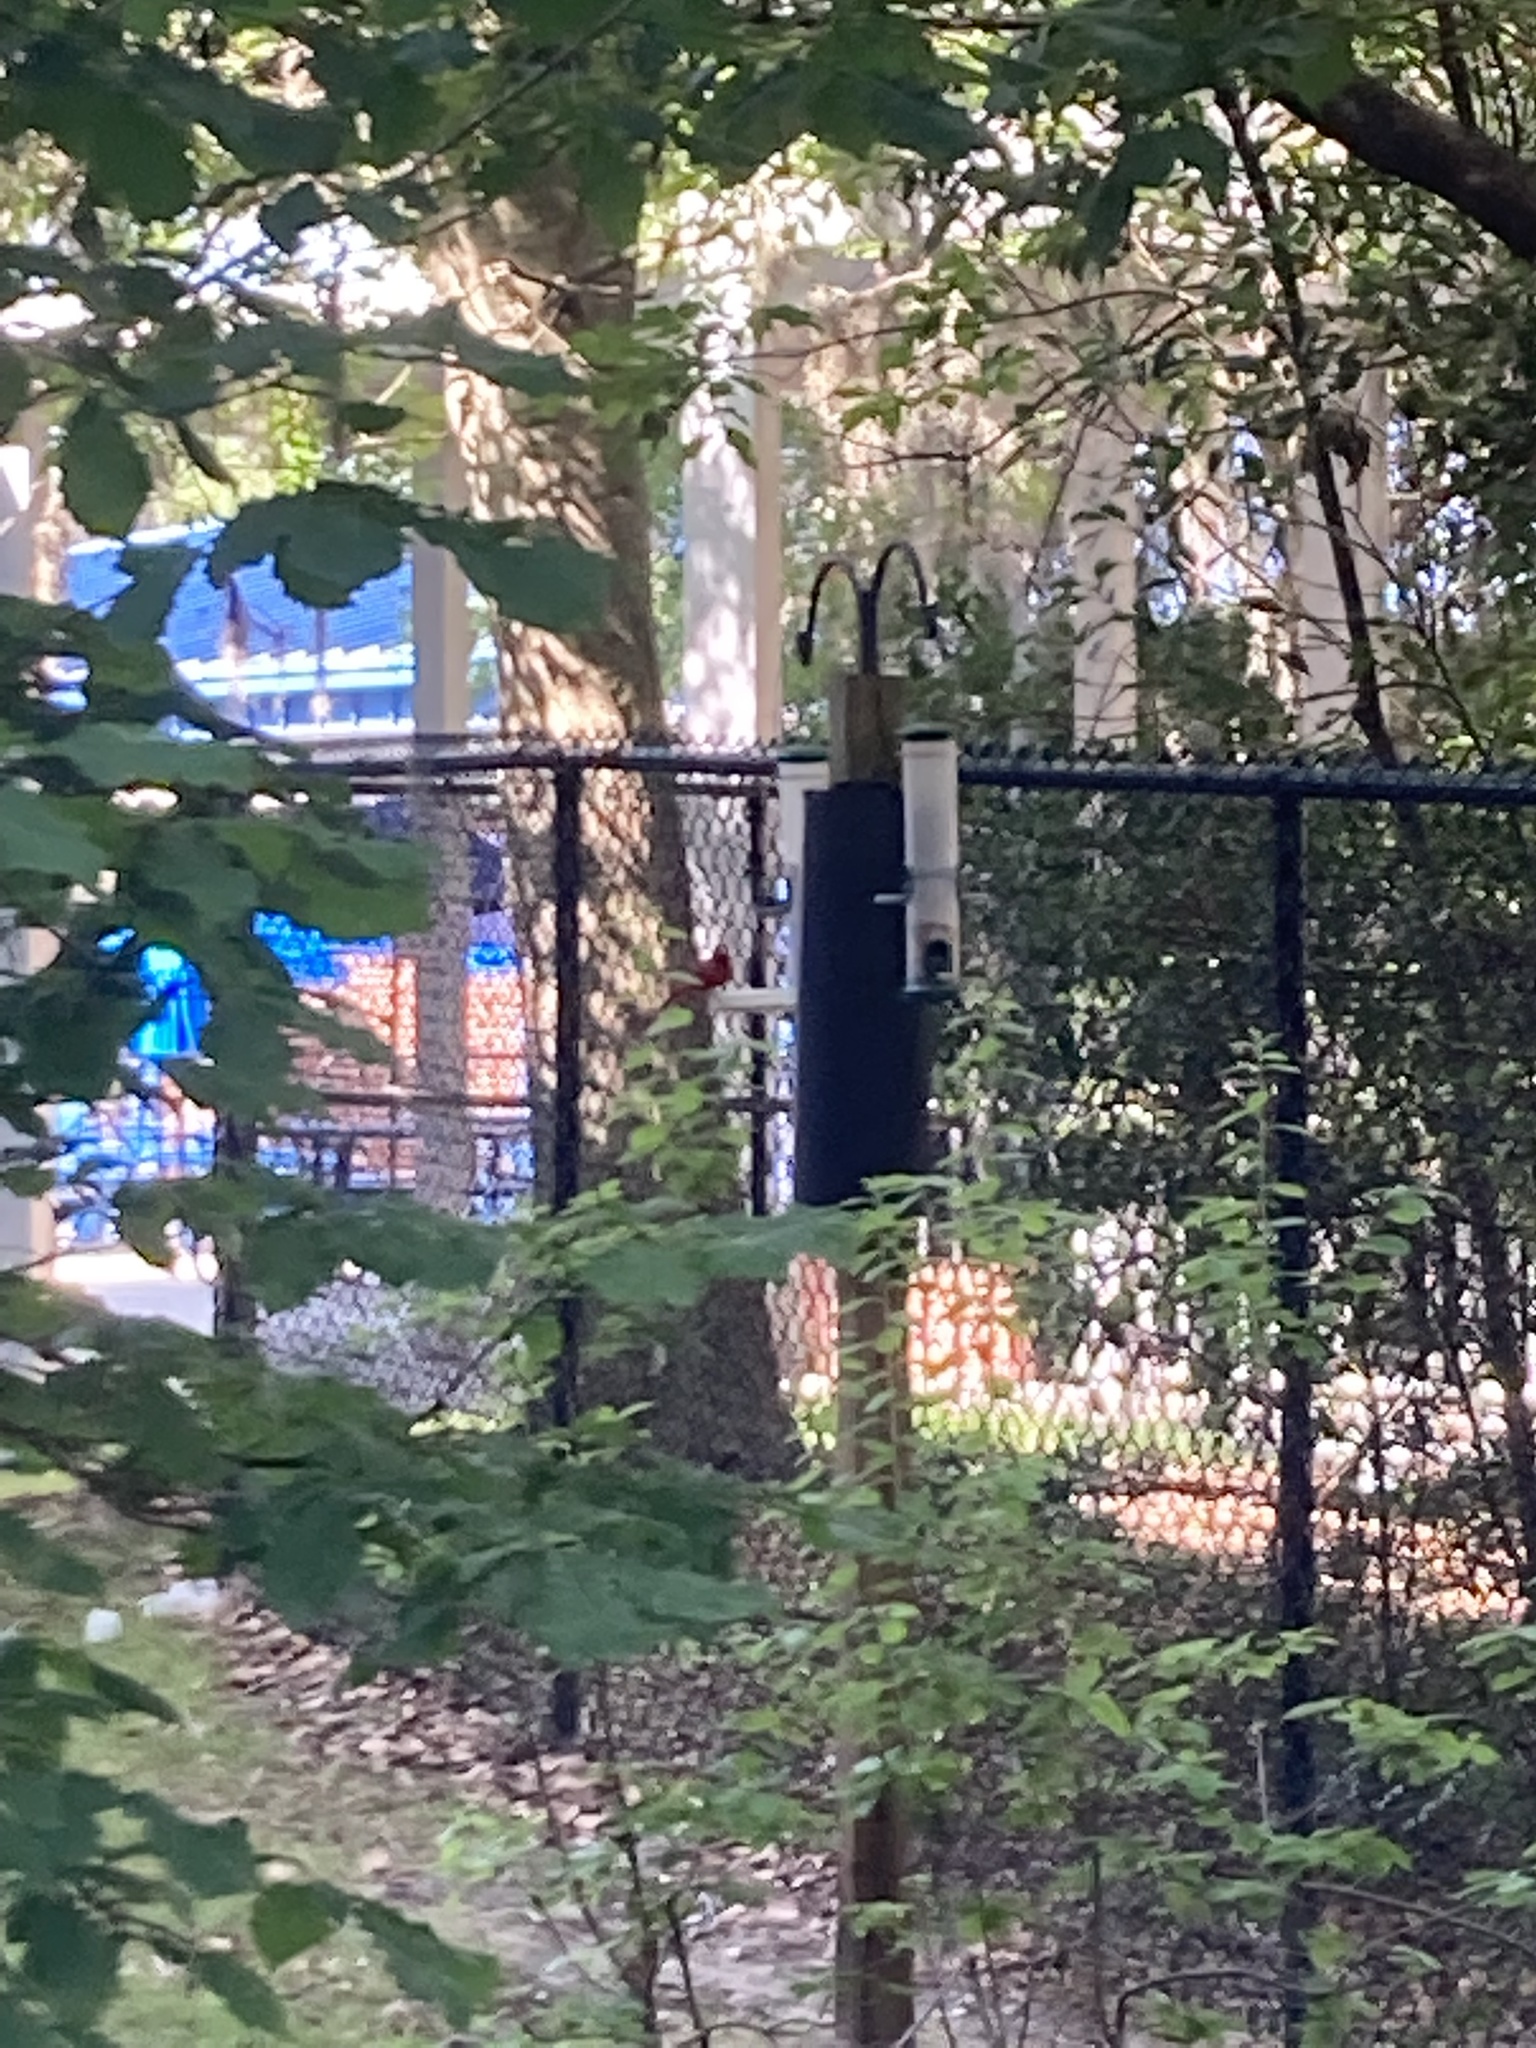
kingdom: Animalia
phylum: Chordata
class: Aves
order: Passeriformes
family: Cardinalidae
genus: Cardinalis
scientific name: Cardinalis cardinalis
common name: Northern cardinal
